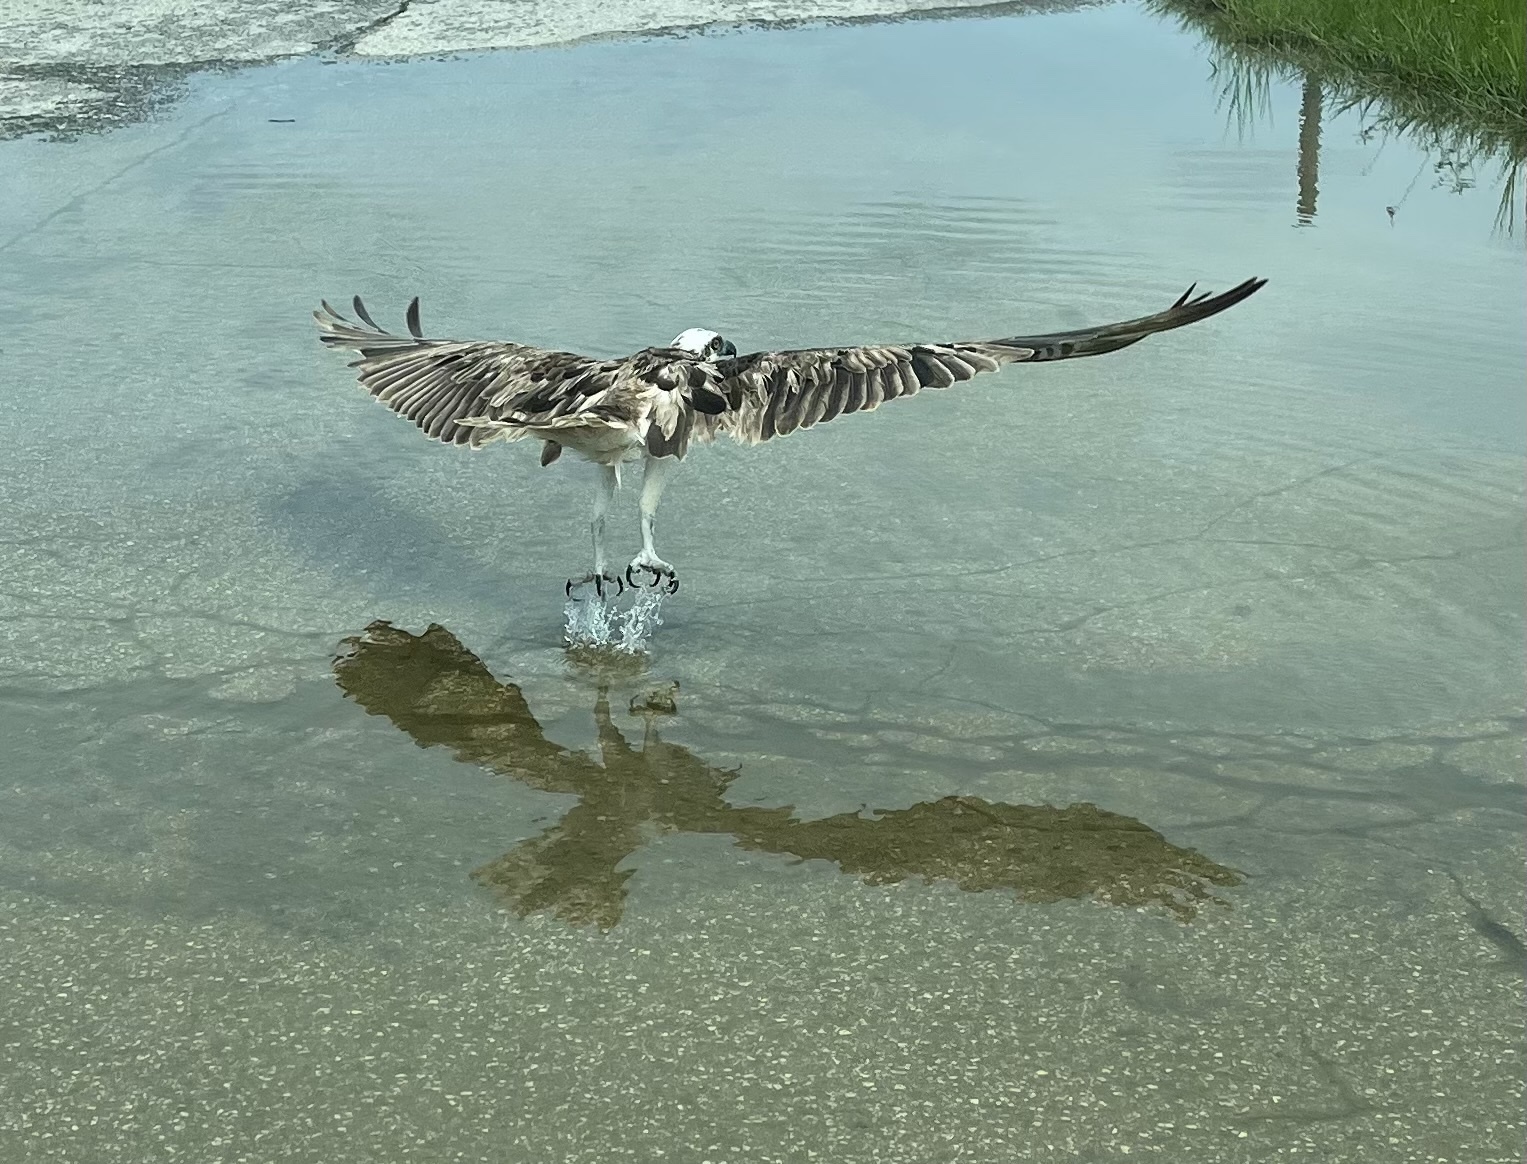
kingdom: Animalia
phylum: Chordata
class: Aves
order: Accipitriformes
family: Pandionidae
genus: Pandion
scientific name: Pandion haliaetus
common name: Osprey
